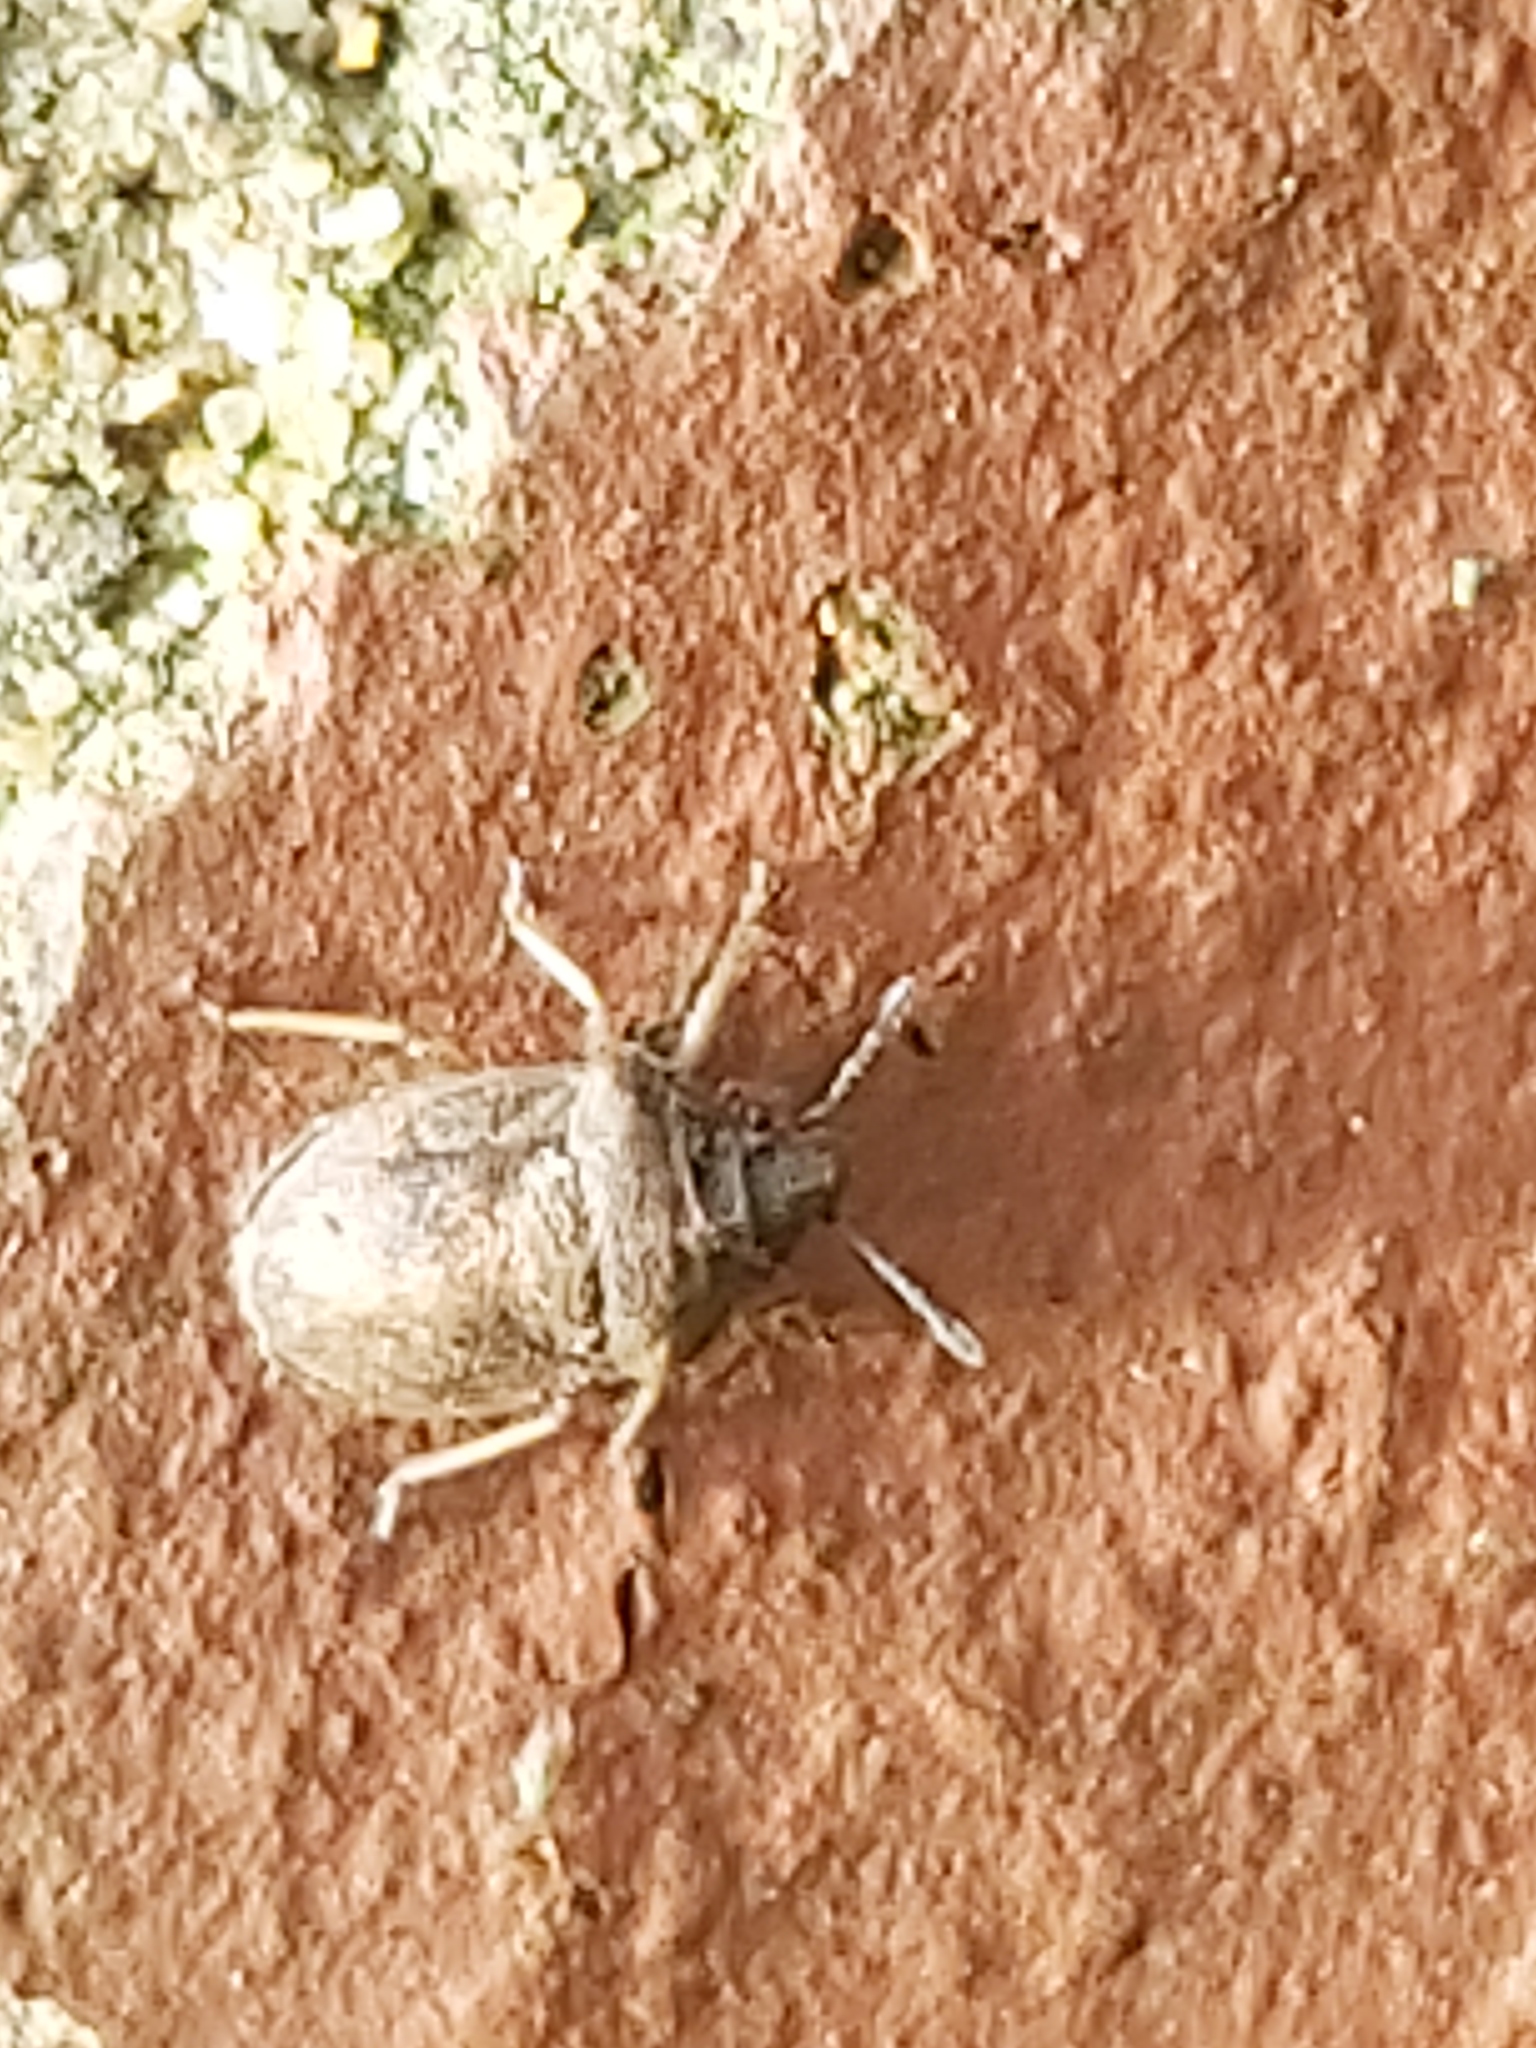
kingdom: Animalia
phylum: Arthropoda
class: Insecta
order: Hemiptera
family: Pentatomidae
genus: Podops
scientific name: Podops inunctus
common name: Turtle bug
